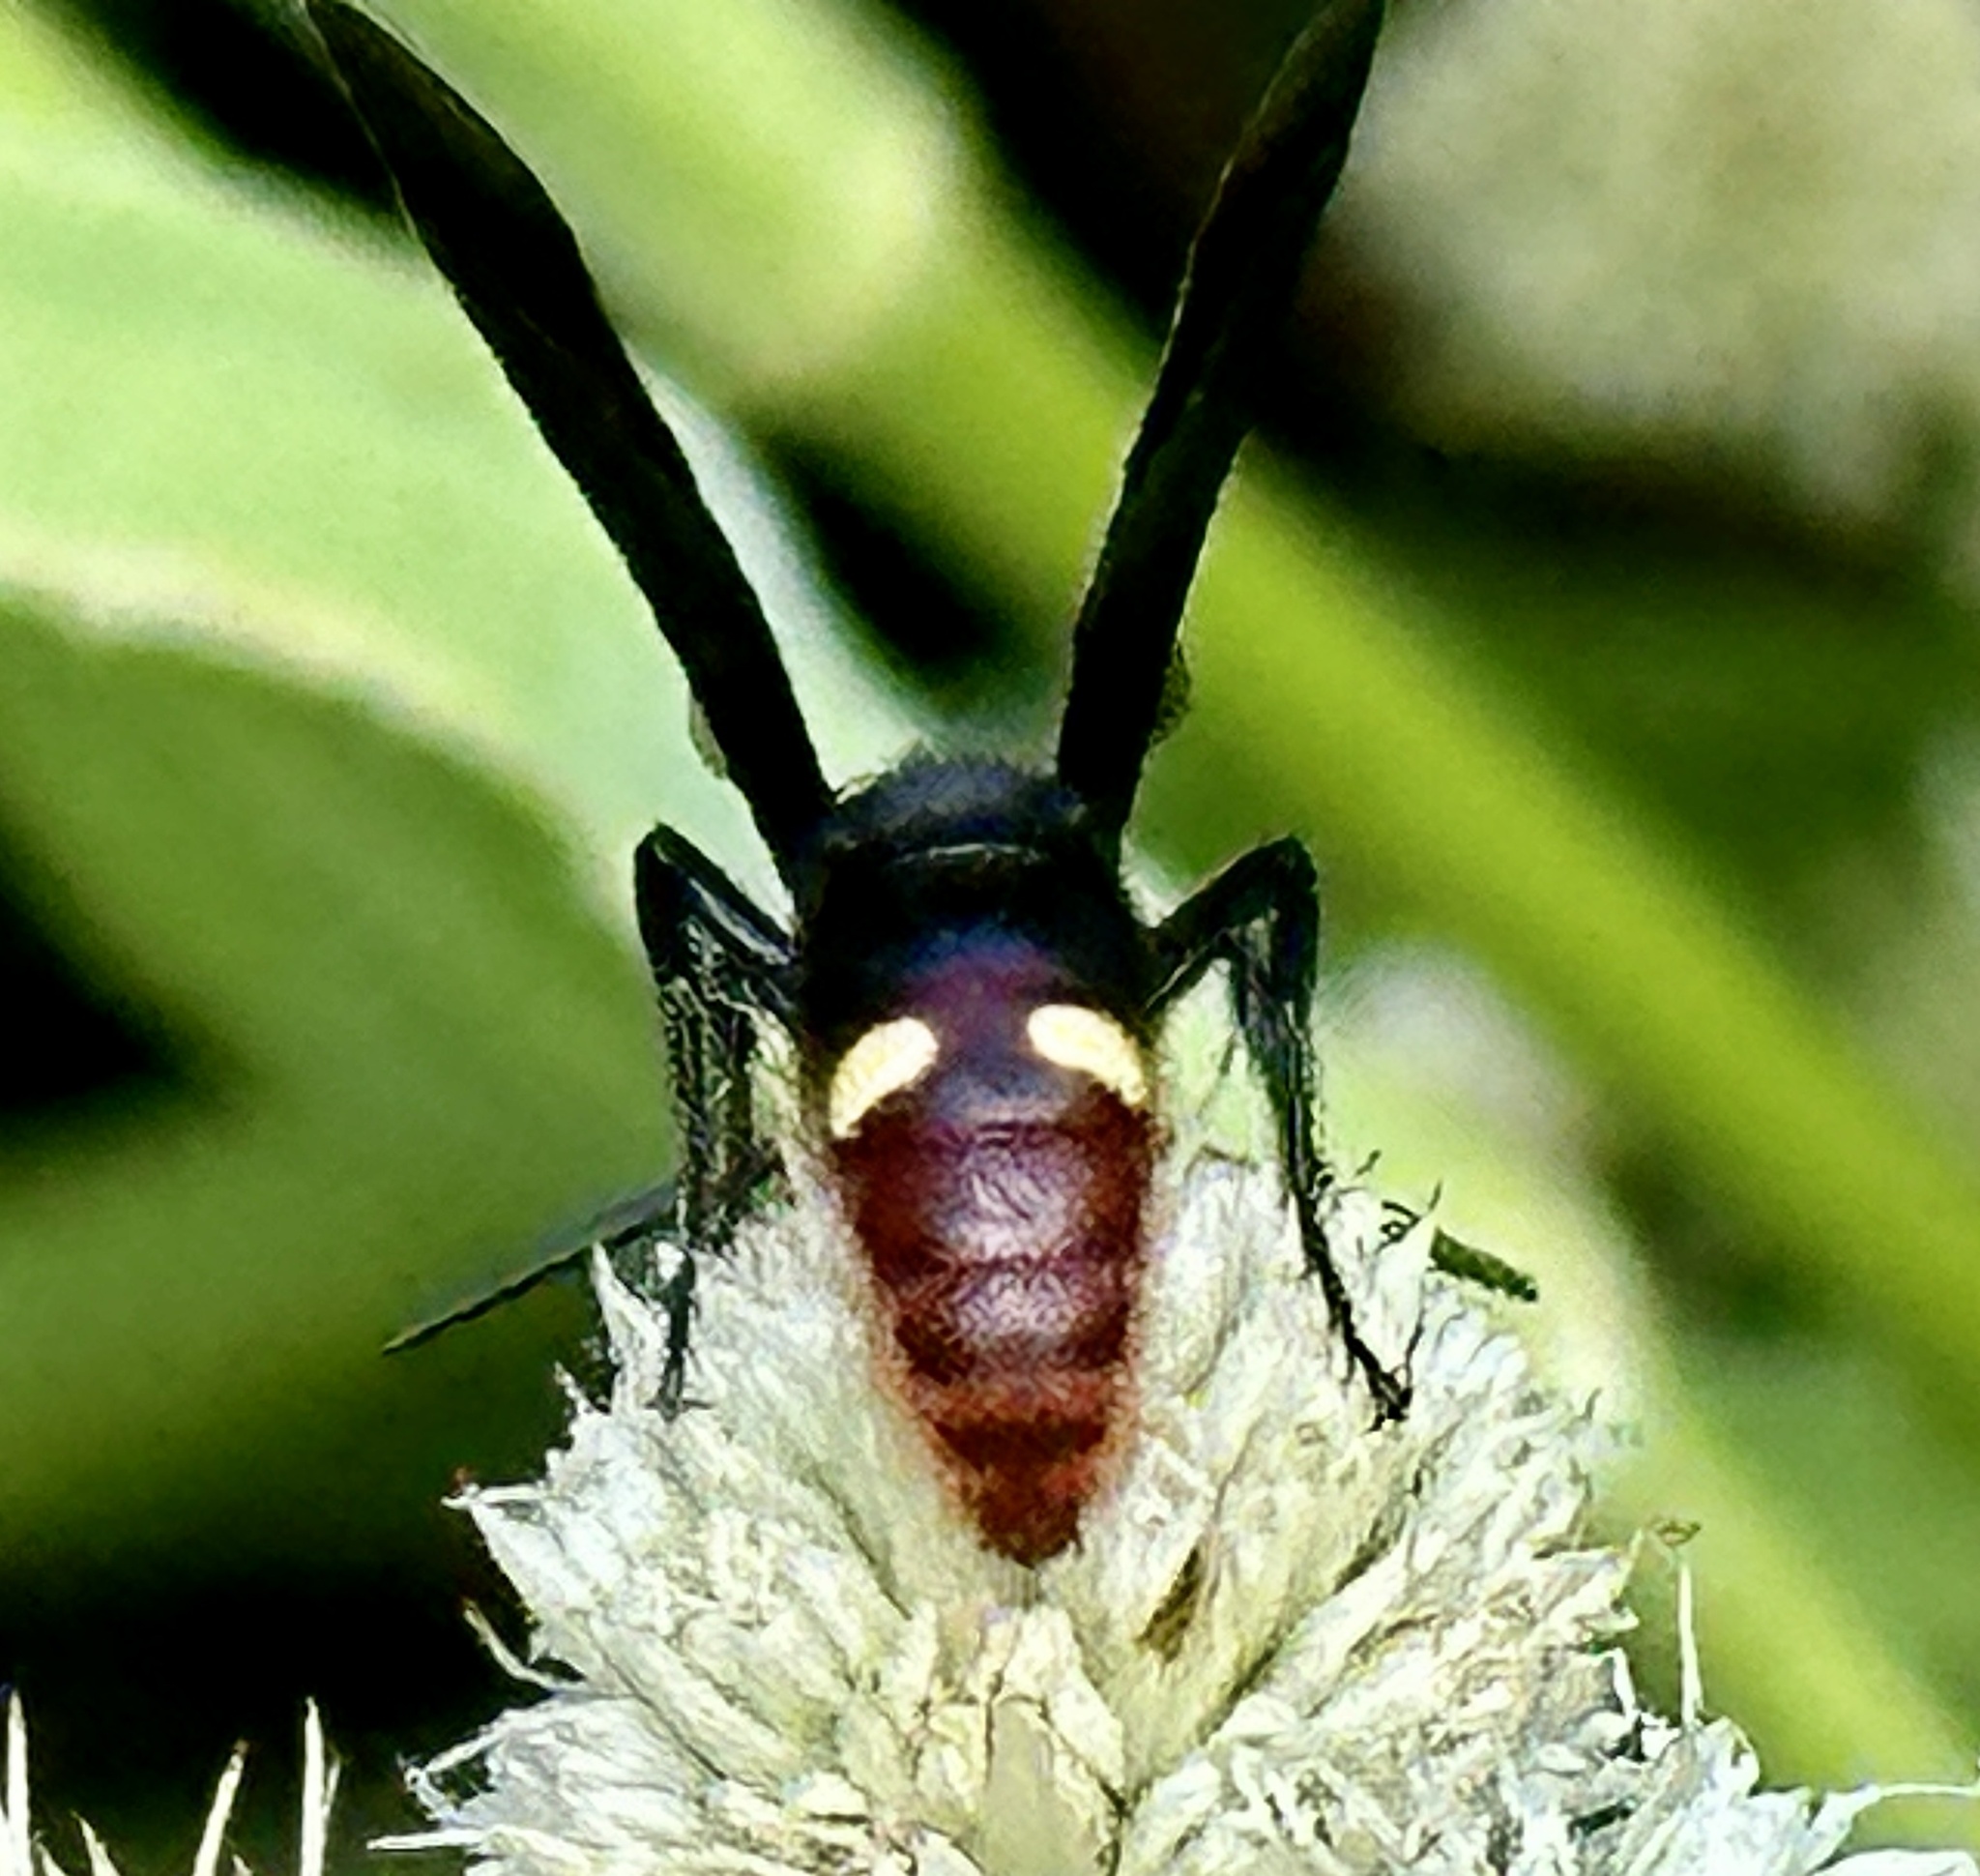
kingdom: Animalia
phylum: Arthropoda
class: Insecta
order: Hymenoptera
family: Scoliidae
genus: Scolia
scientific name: Scolia dubia
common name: Blue-winged scoliid wasp
